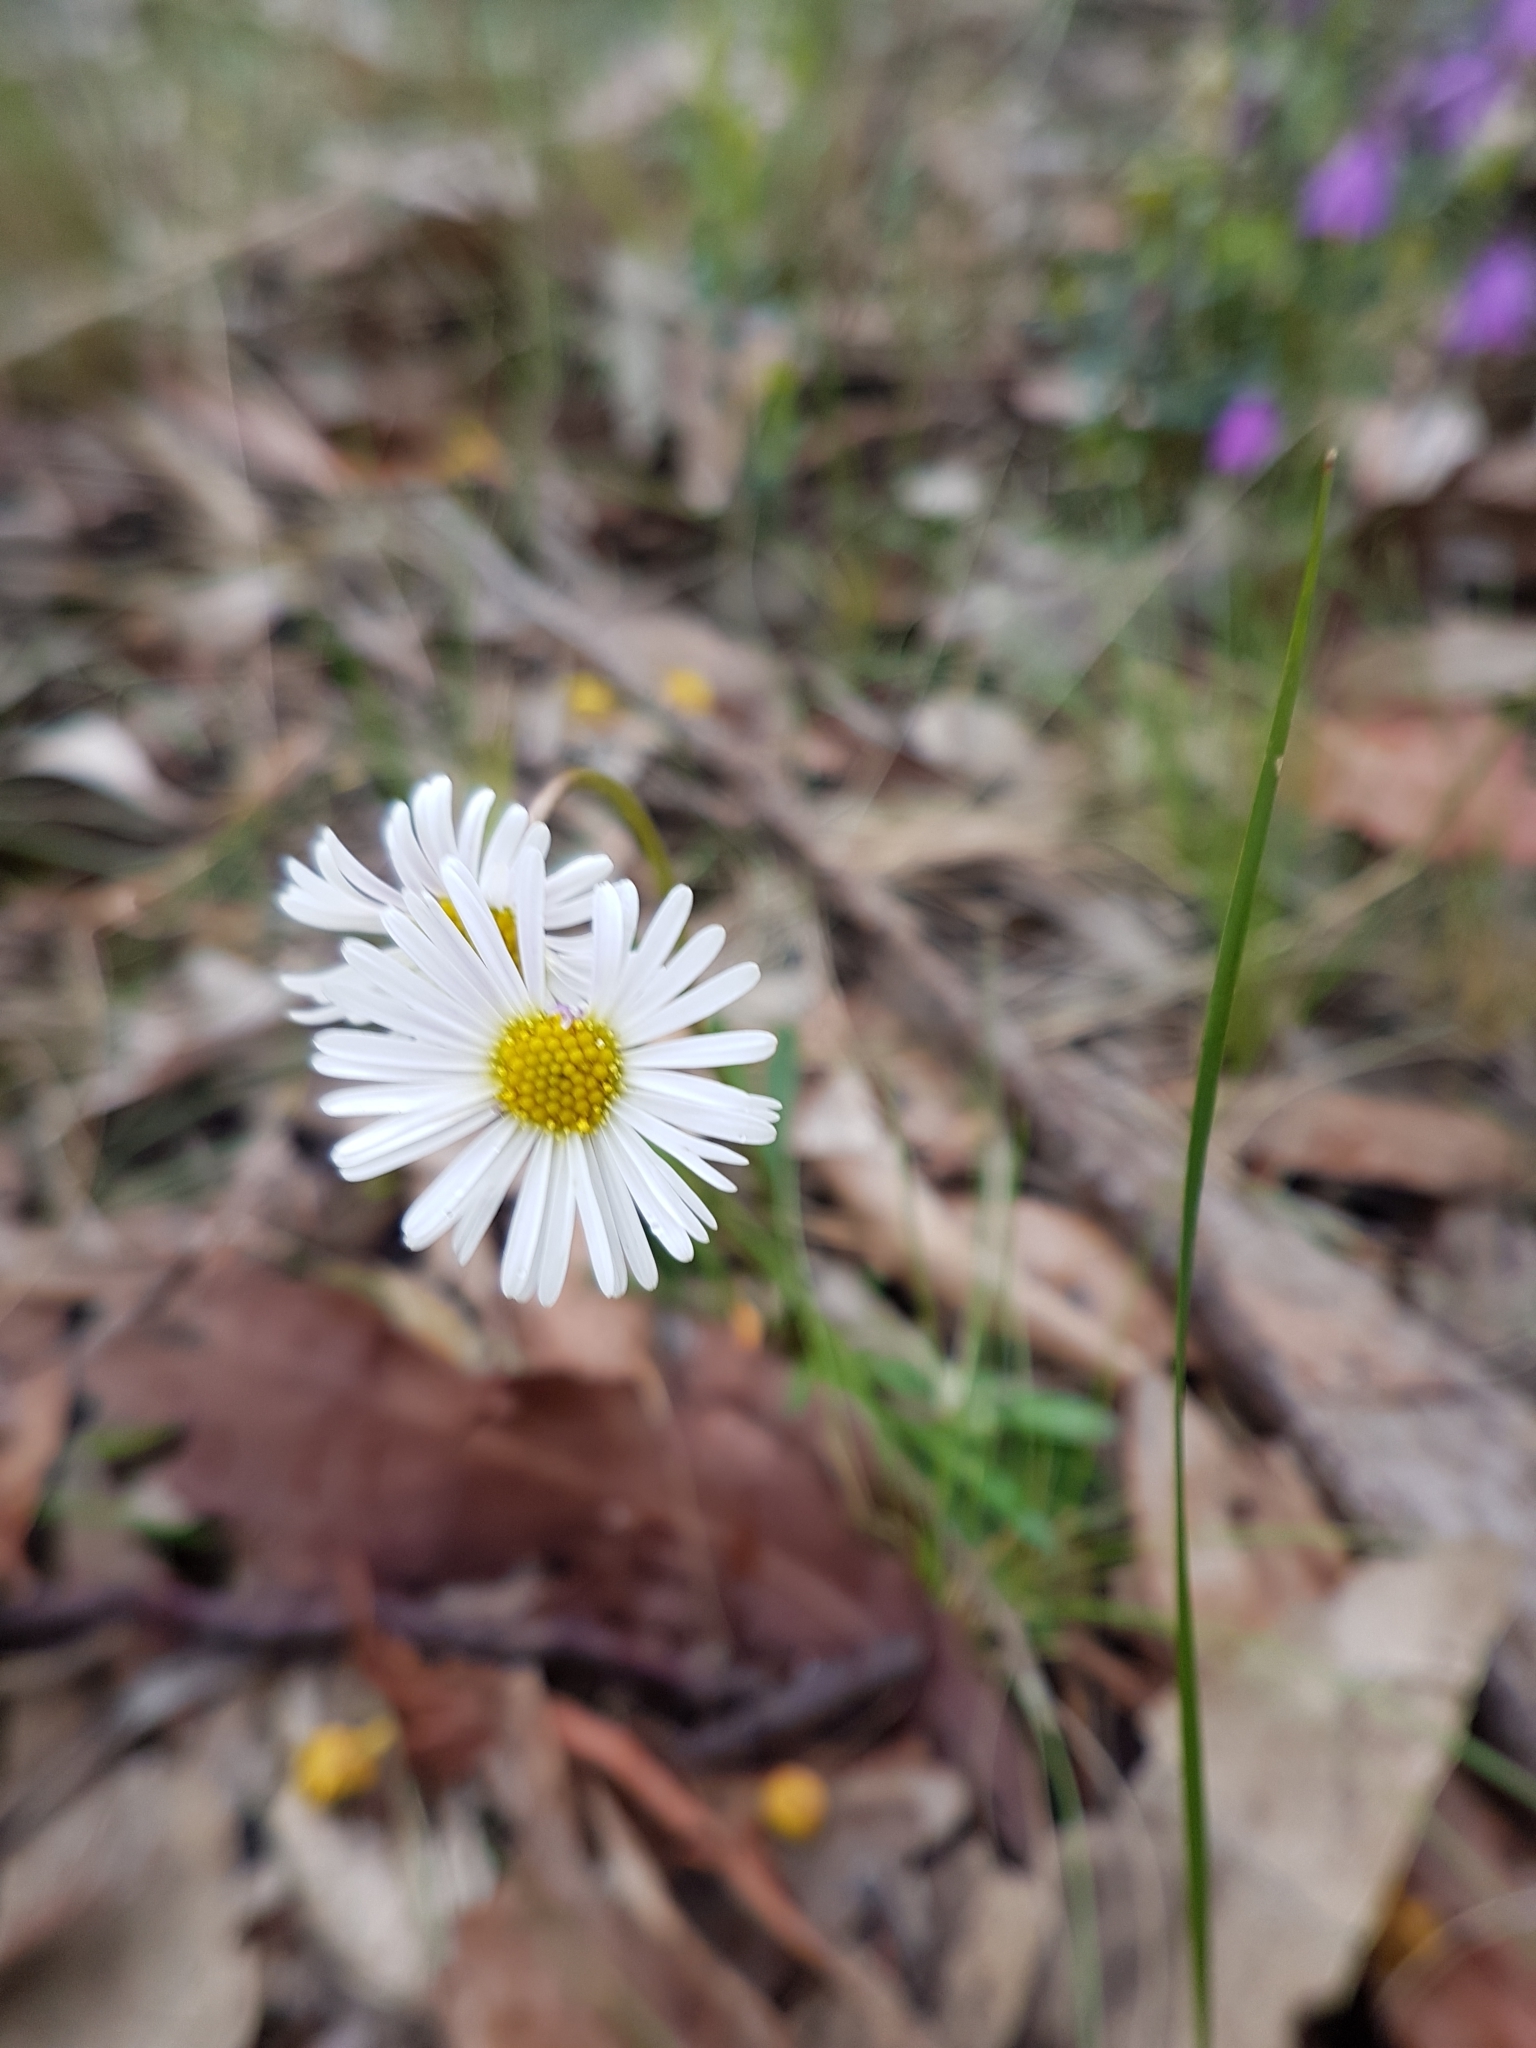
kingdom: Plantae
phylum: Tracheophyta
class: Magnoliopsida
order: Asterales
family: Asteraceae
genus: Allittia
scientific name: Allittia uliginosa
